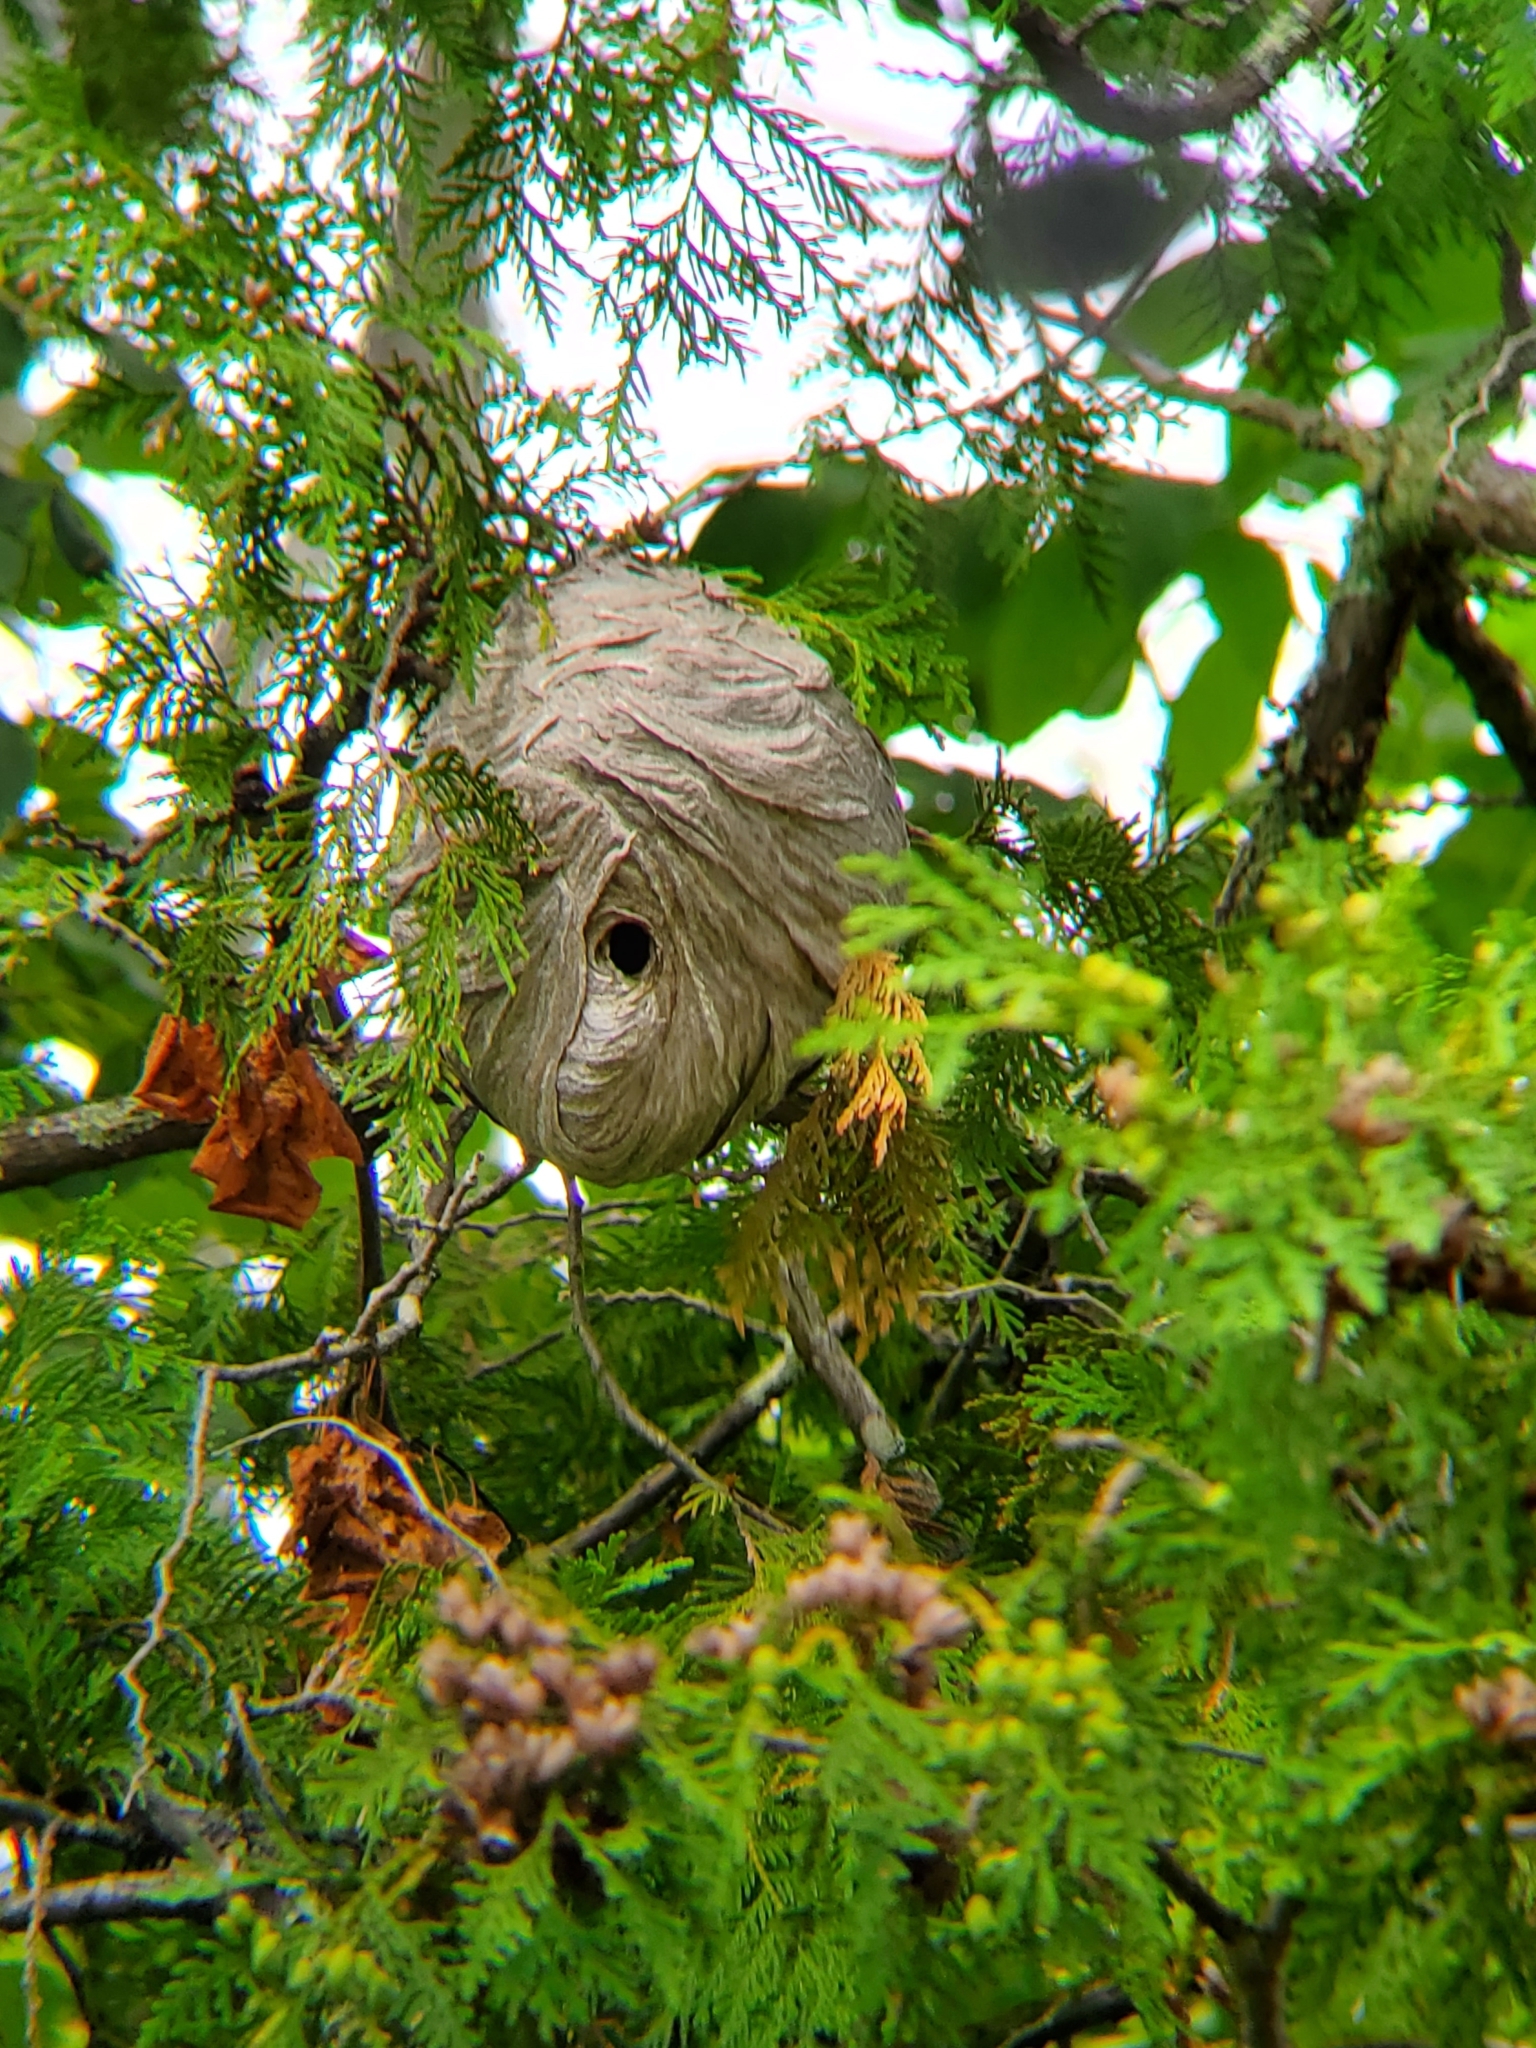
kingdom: Animalia
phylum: Arthropoda
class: Insecta
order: Hymenoptera
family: Vespidae
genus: Dolichovespula
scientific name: Dolichovespula
